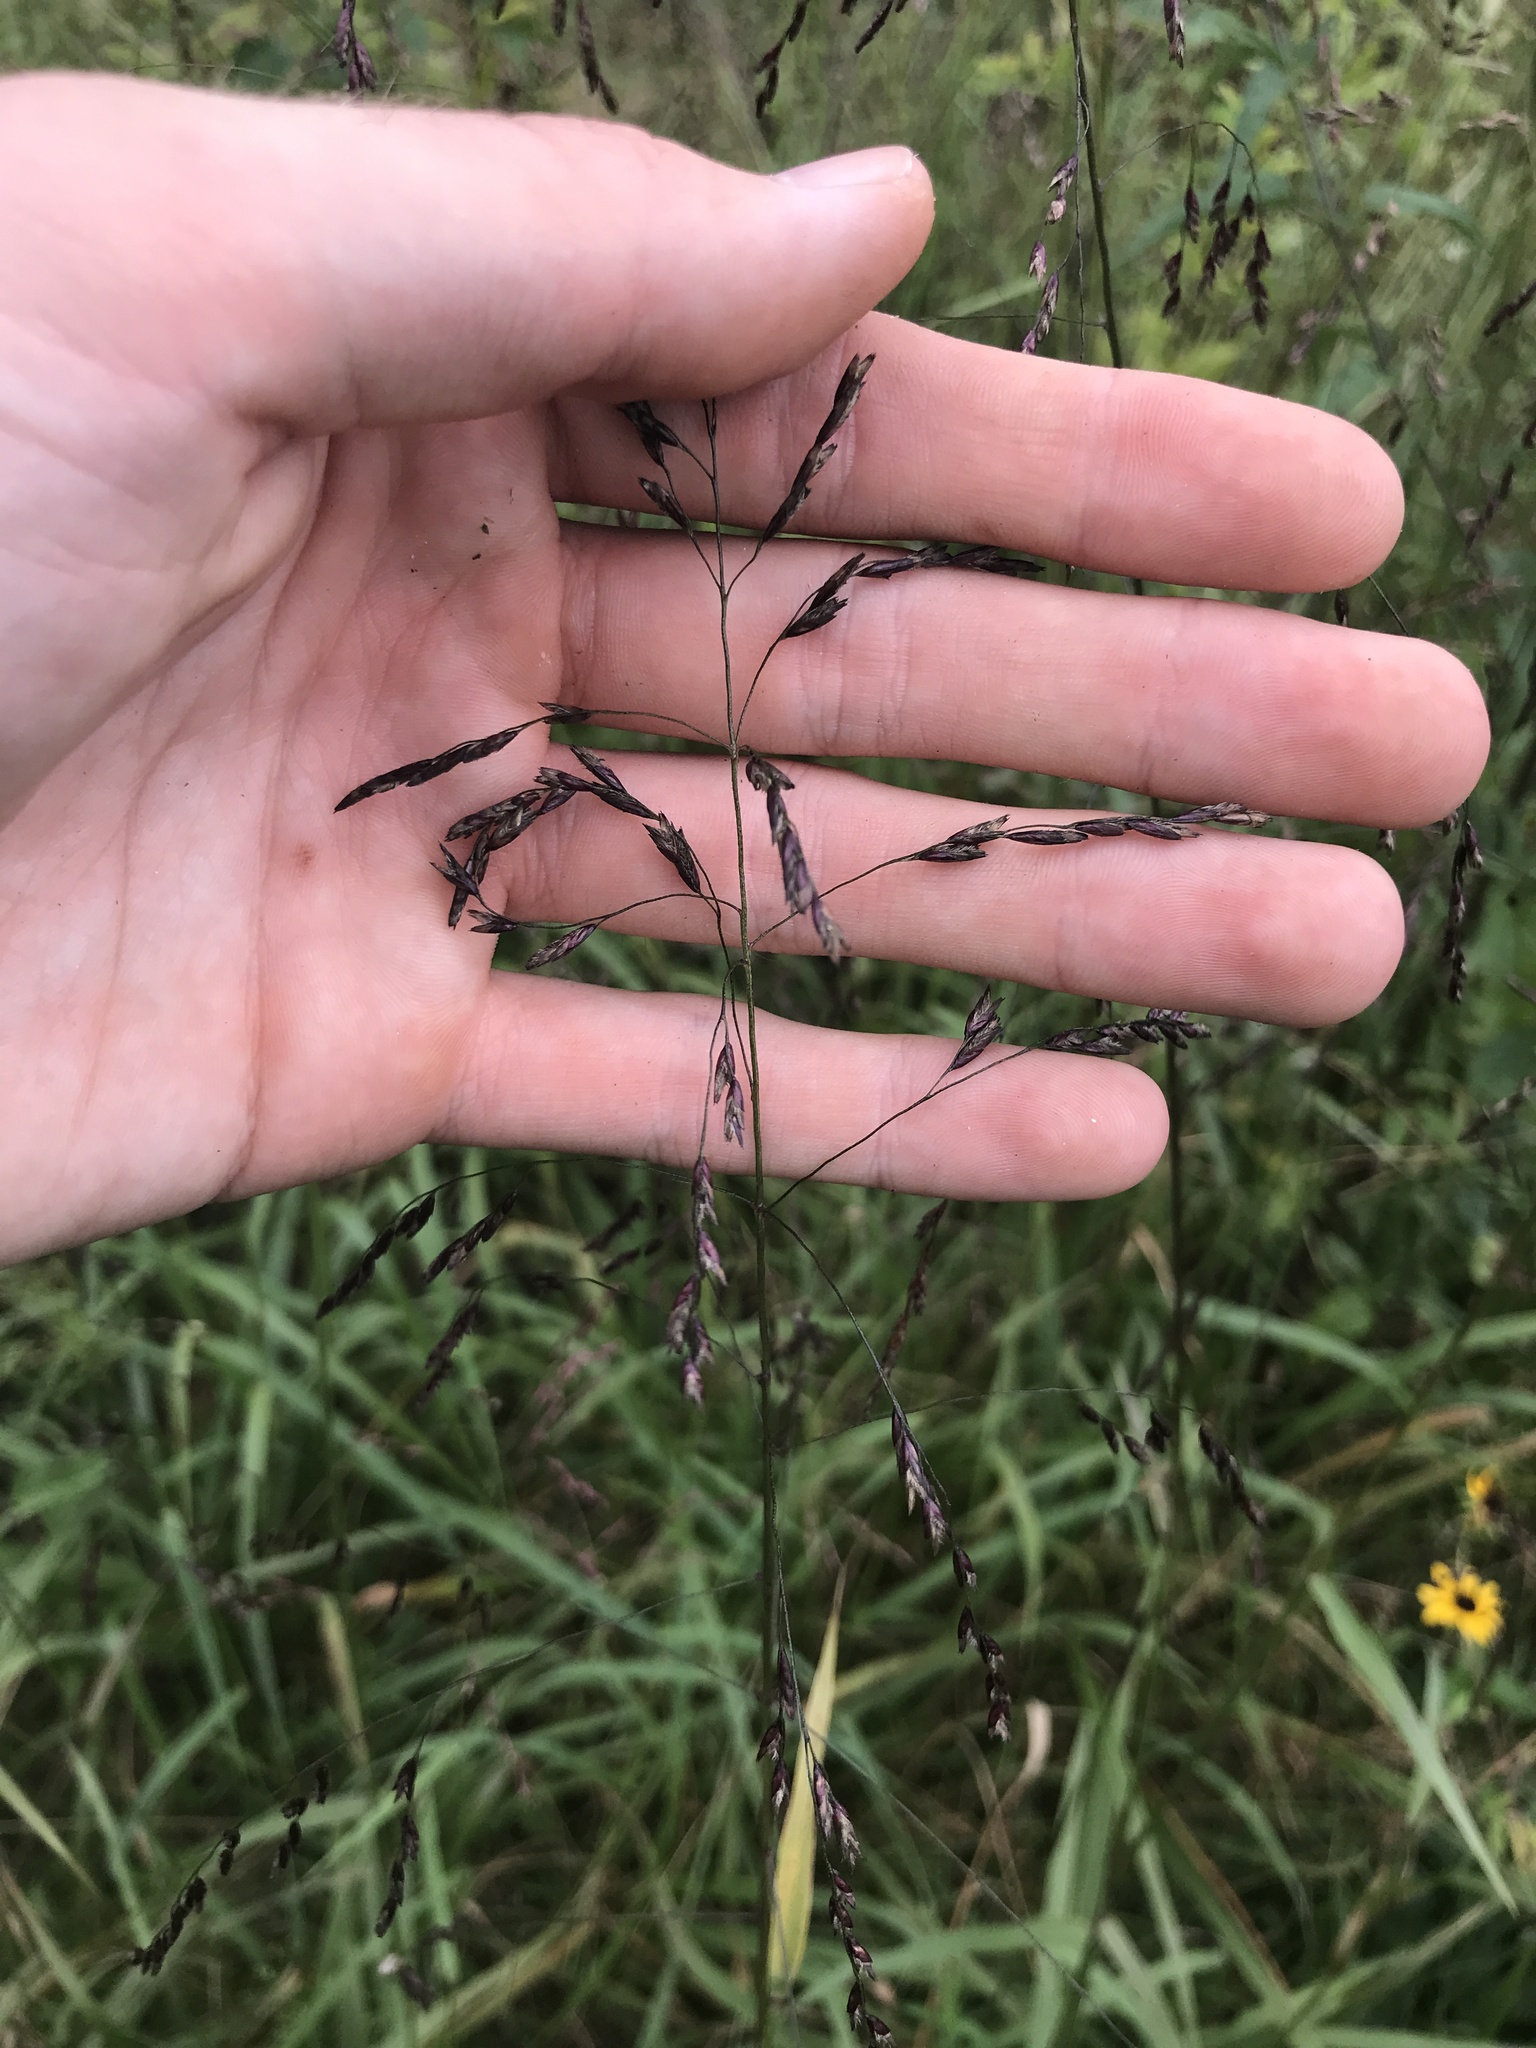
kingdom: Plantae
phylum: Tracheophyta
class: Liliopsida
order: Poales
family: Poaceae
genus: Tridens
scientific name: Tridens flavus
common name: Purpletop
